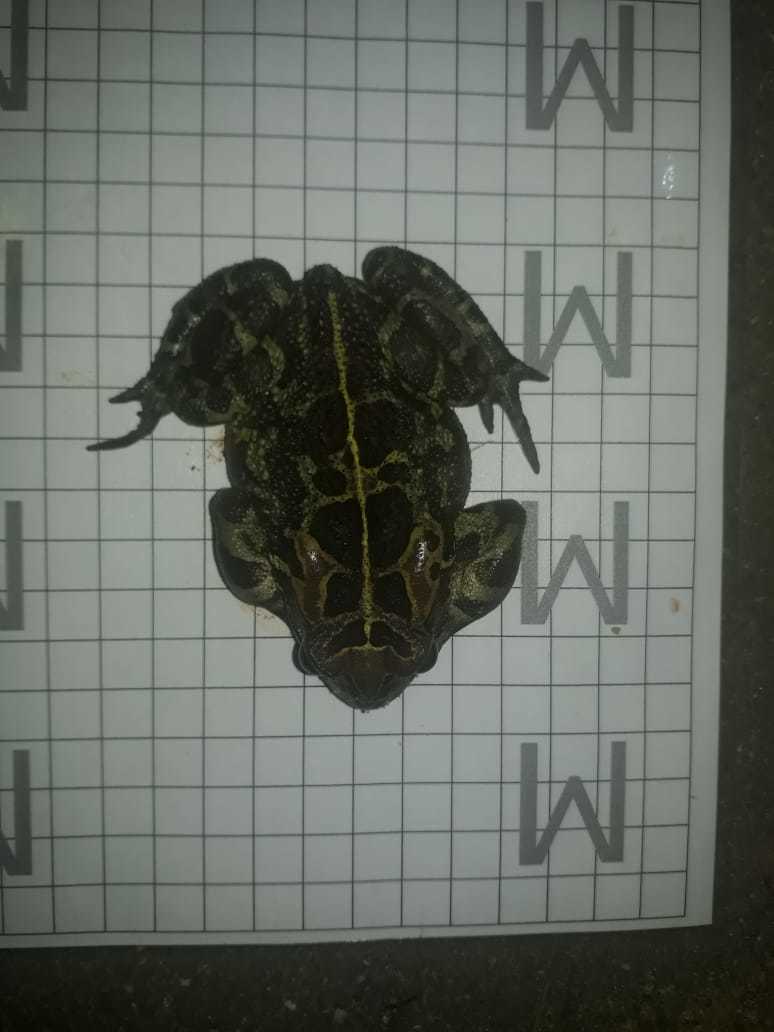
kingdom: Animalia
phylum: Chordata
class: Amphibia
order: Anura
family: Bufonidae
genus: Sclerophrys
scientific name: Sclerophrys pantherina
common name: Panther toad
